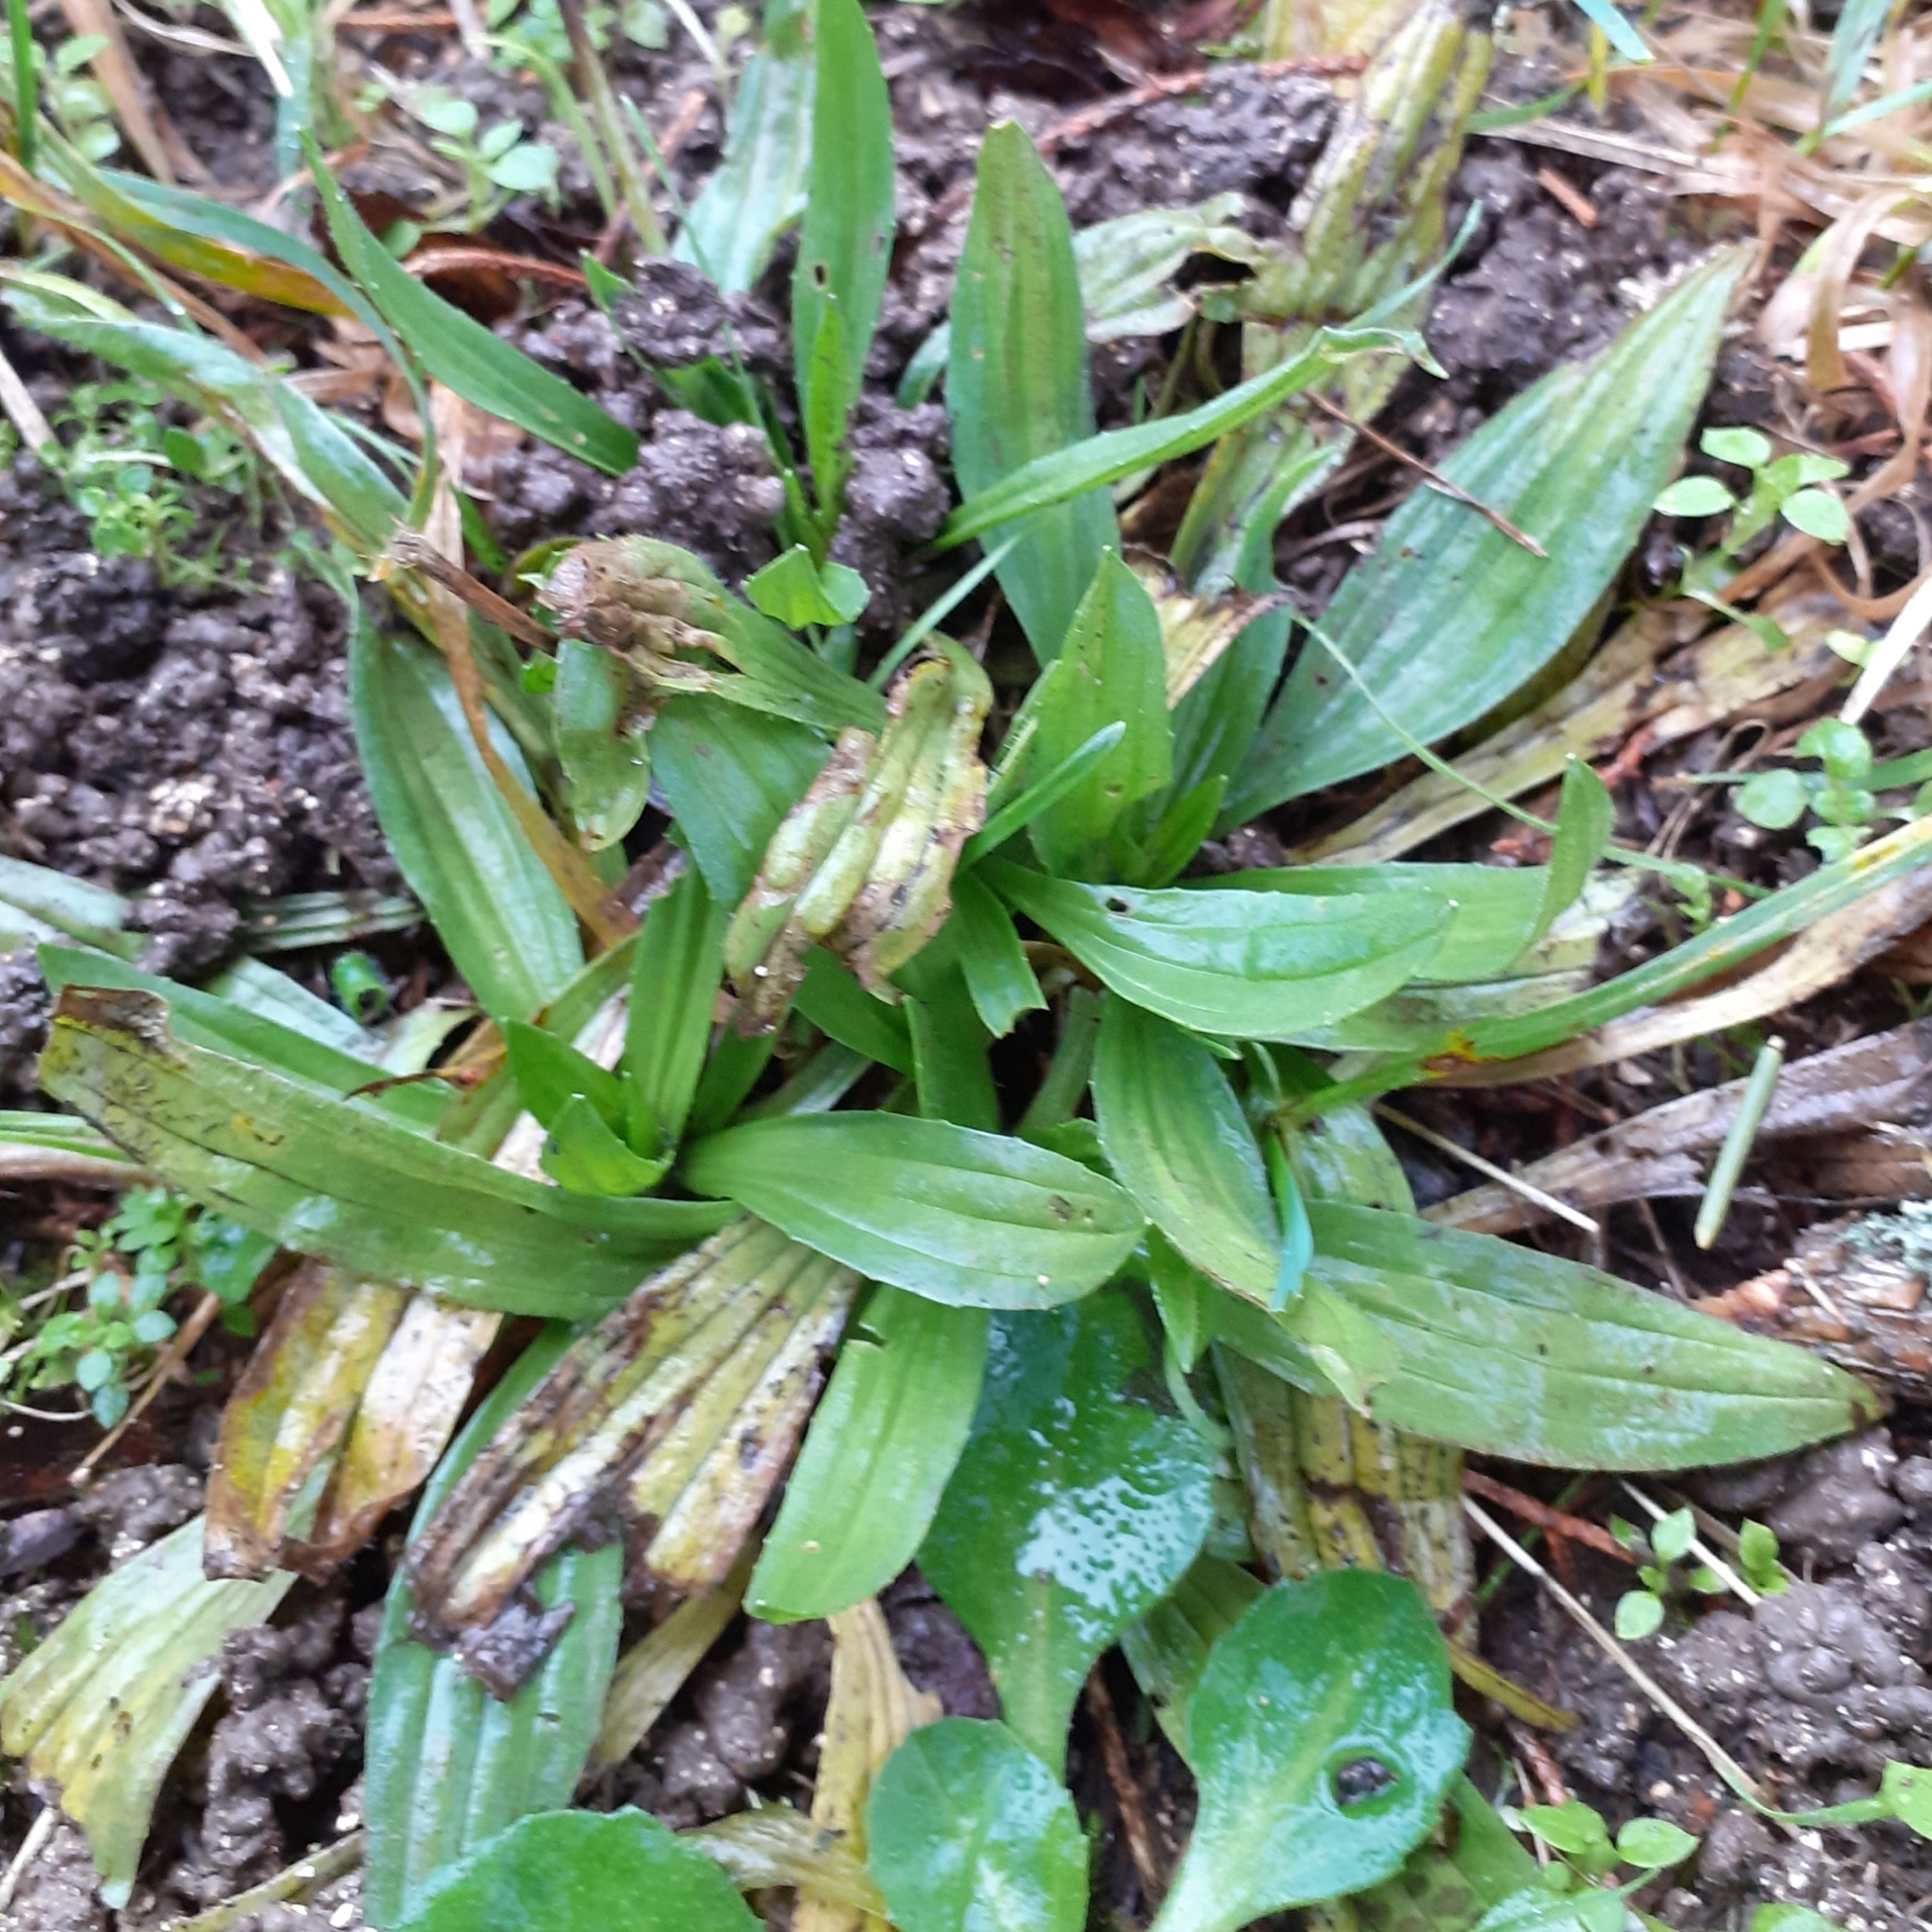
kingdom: Plantae
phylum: Tracheophyta
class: Magnoliopsida
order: Lamiales
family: Plantaginaceae
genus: Plantago
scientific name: Plantago lanceolata
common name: Ribwort plantain
